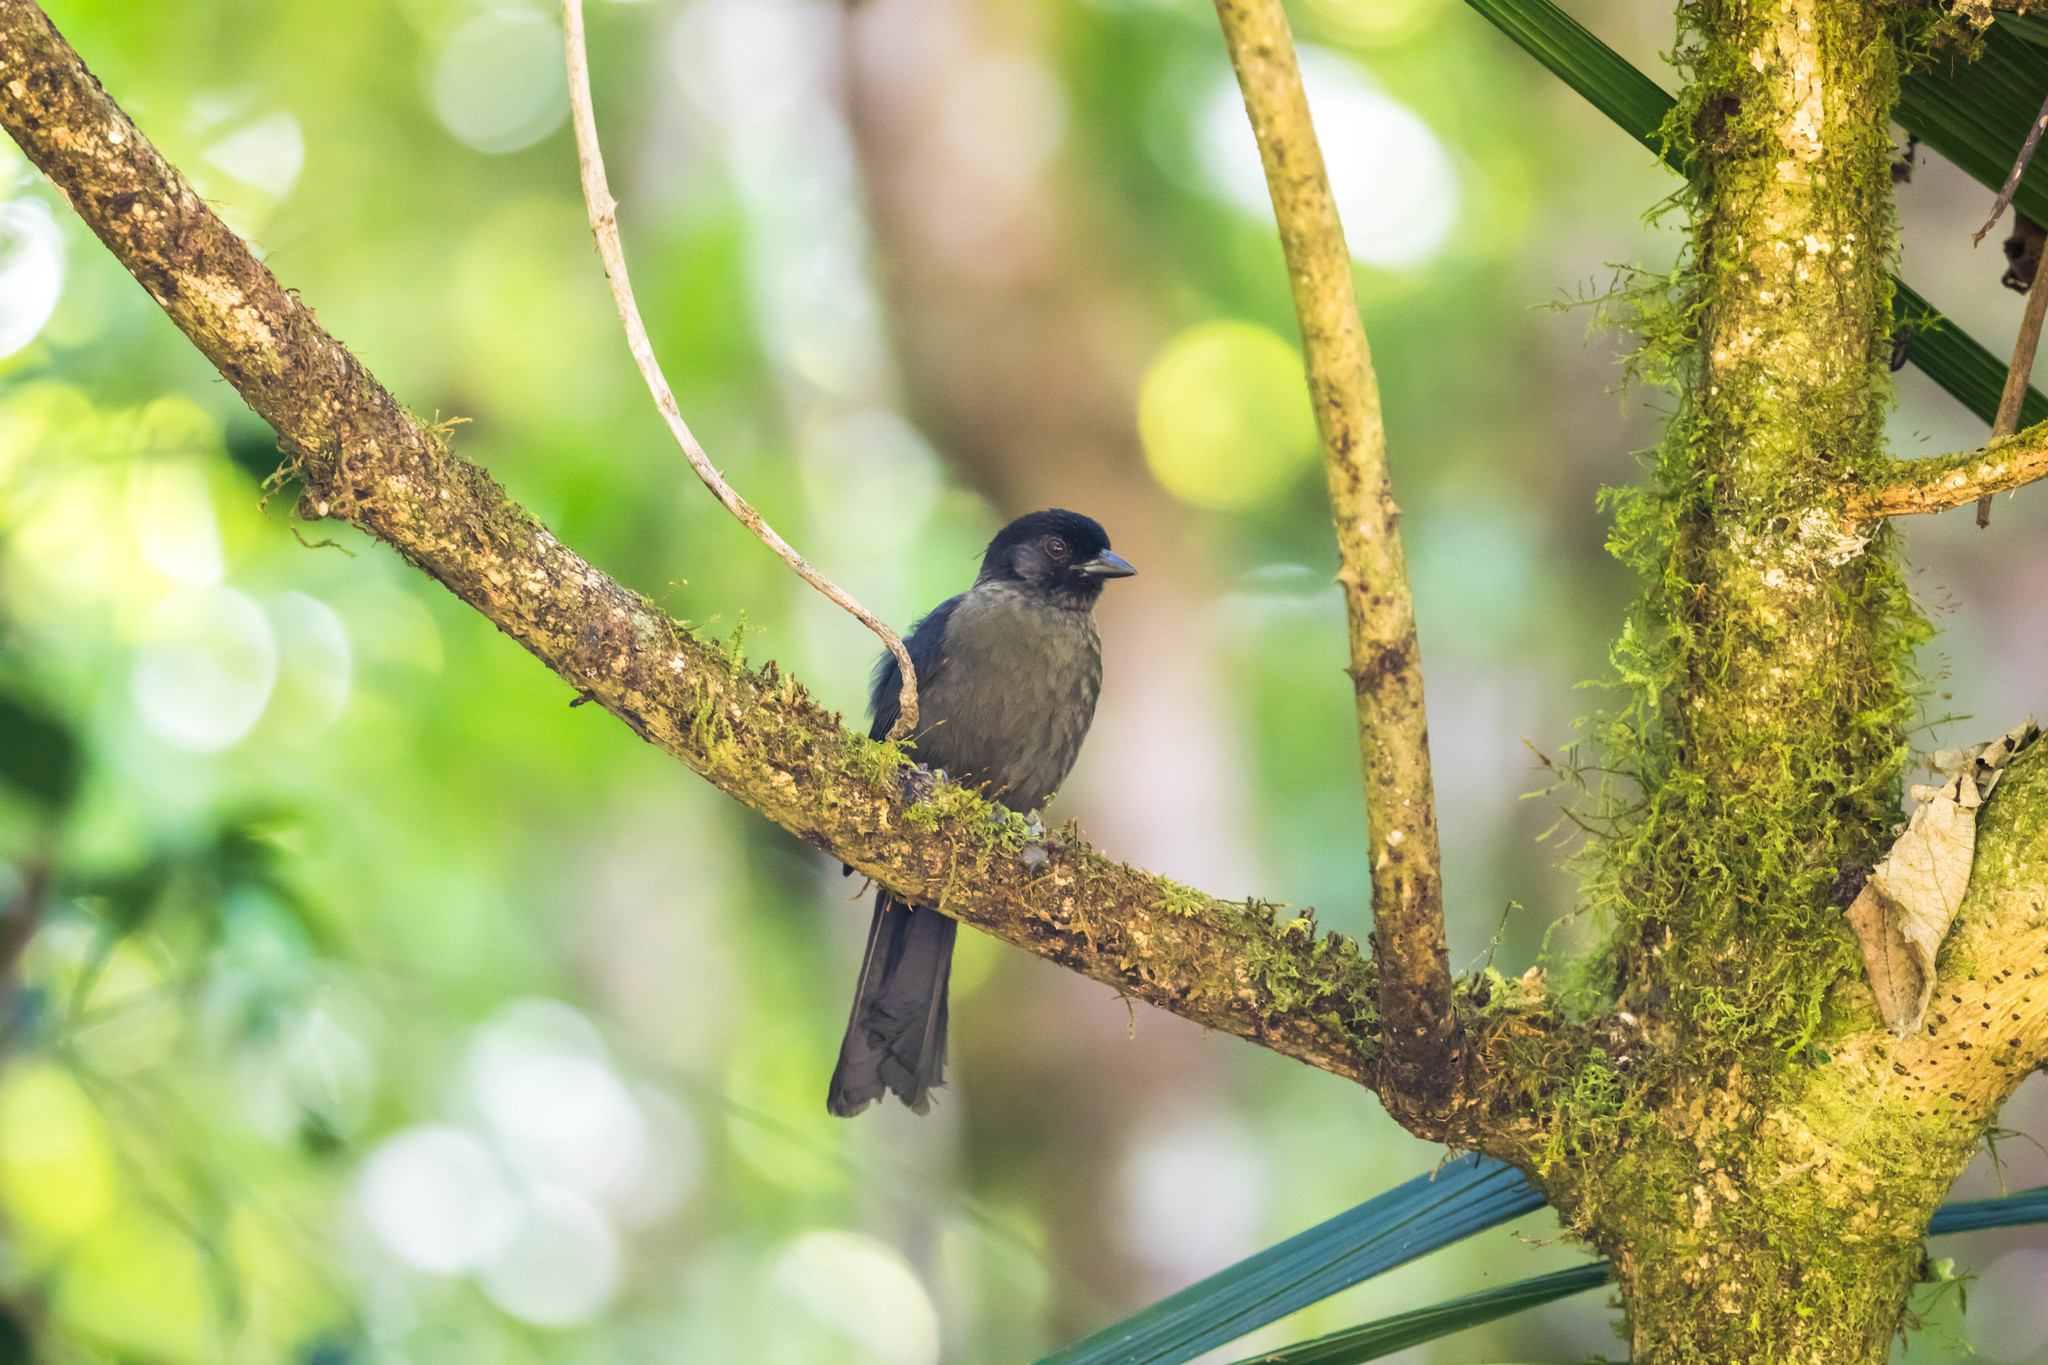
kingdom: Animalia
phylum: Chordata
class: Aves
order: Passeriformes
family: Passerellidae
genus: Atlapetes
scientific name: Atlapetes tibialis
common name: Yellow-thighed brushfinch
